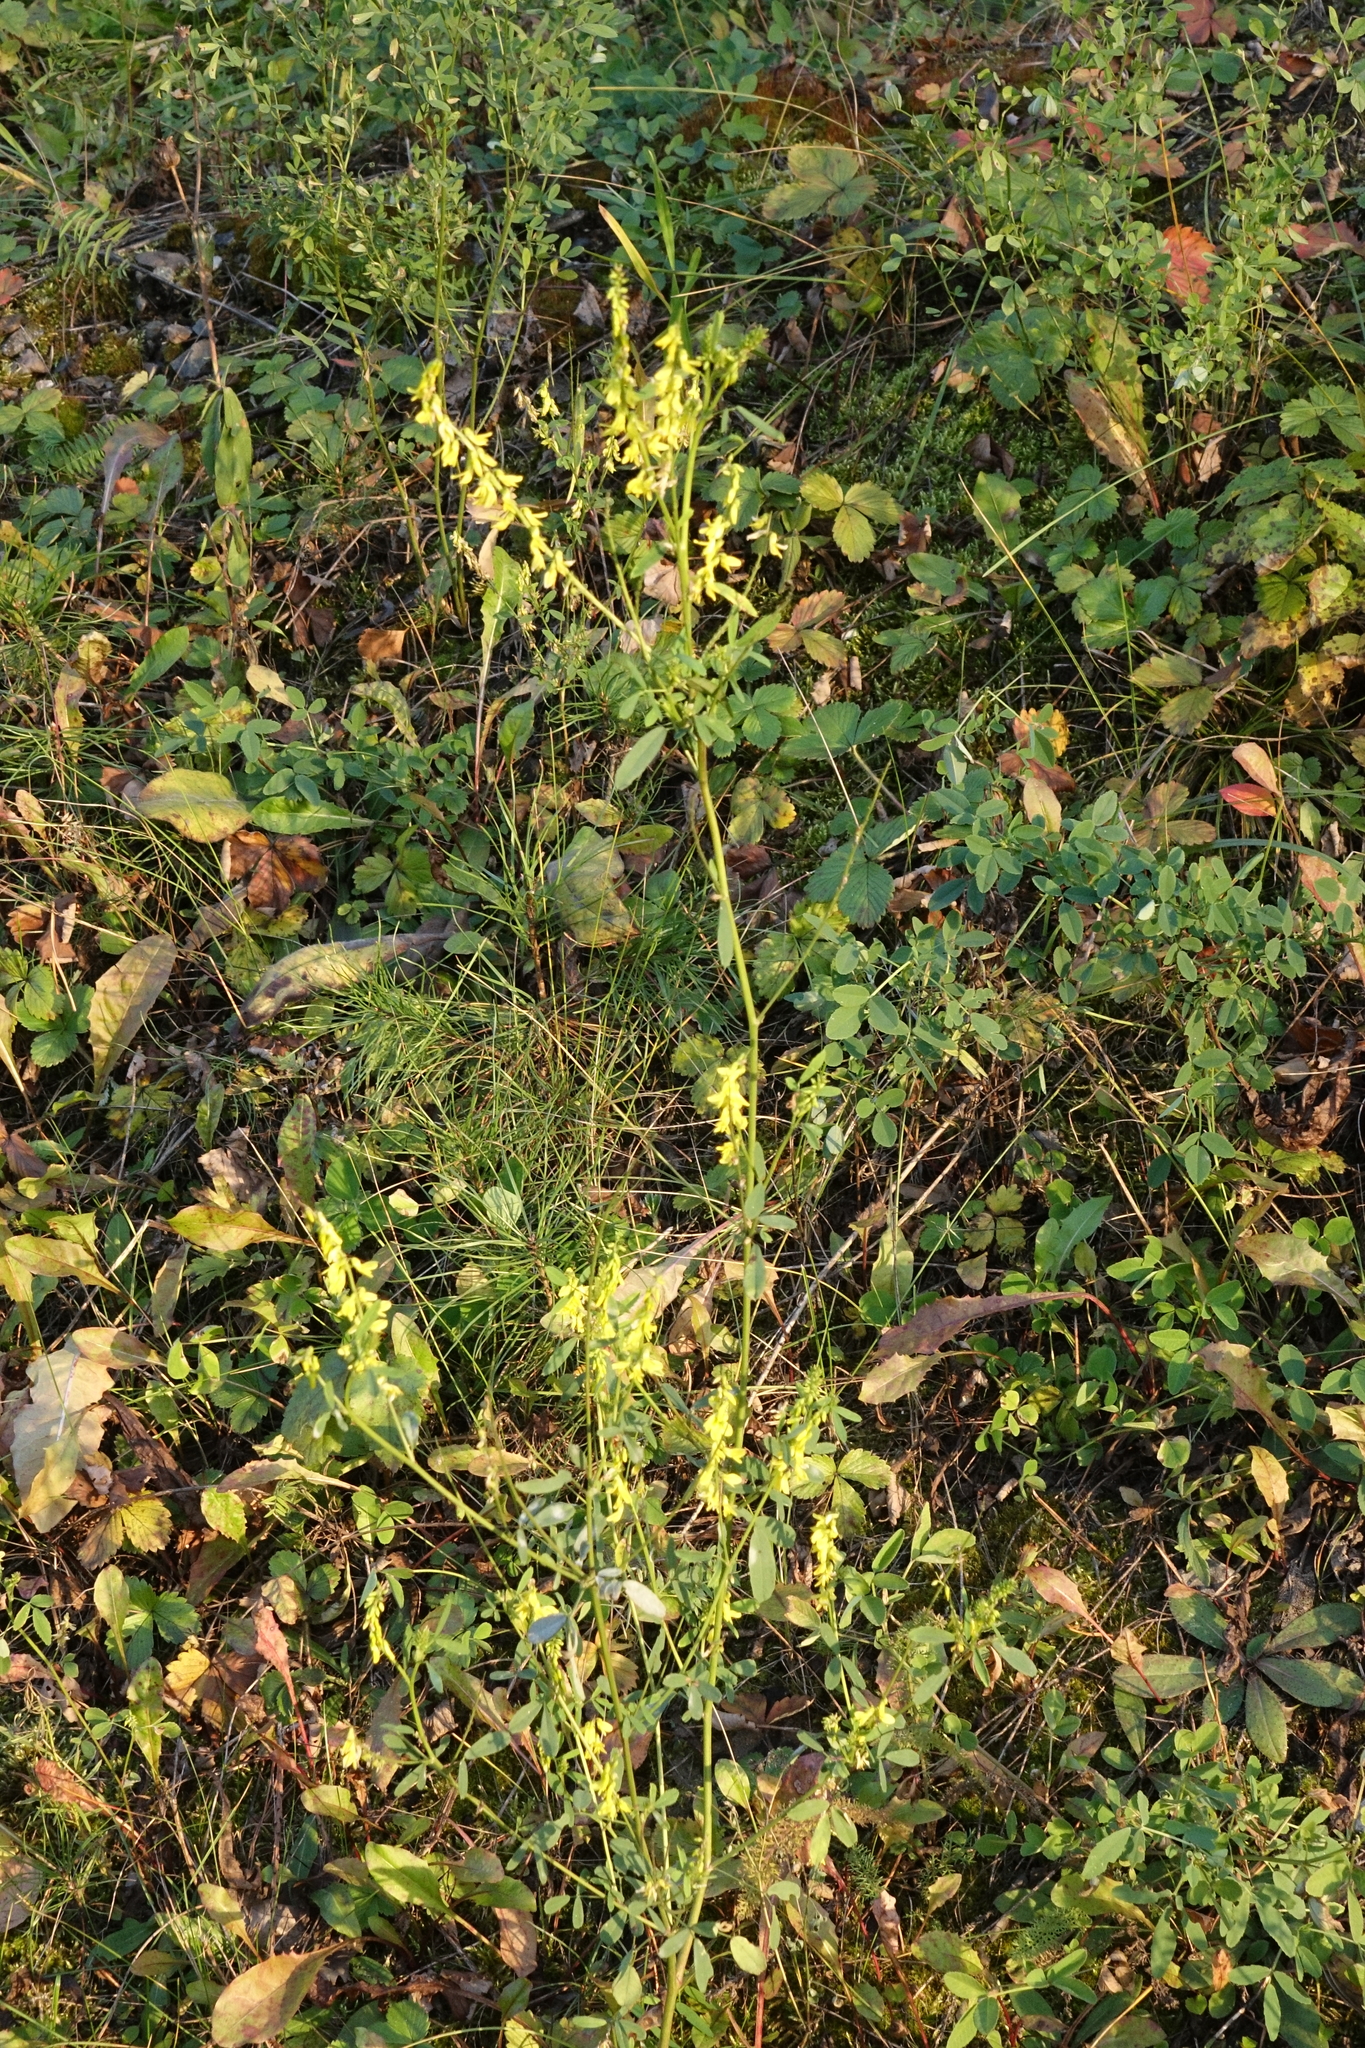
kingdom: Plantae
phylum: Tracheophyta
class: Magnoliopsida
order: Fabales
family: Fabaceae
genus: Melilotus
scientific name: Melilotus officinalis
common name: Sweetclover
